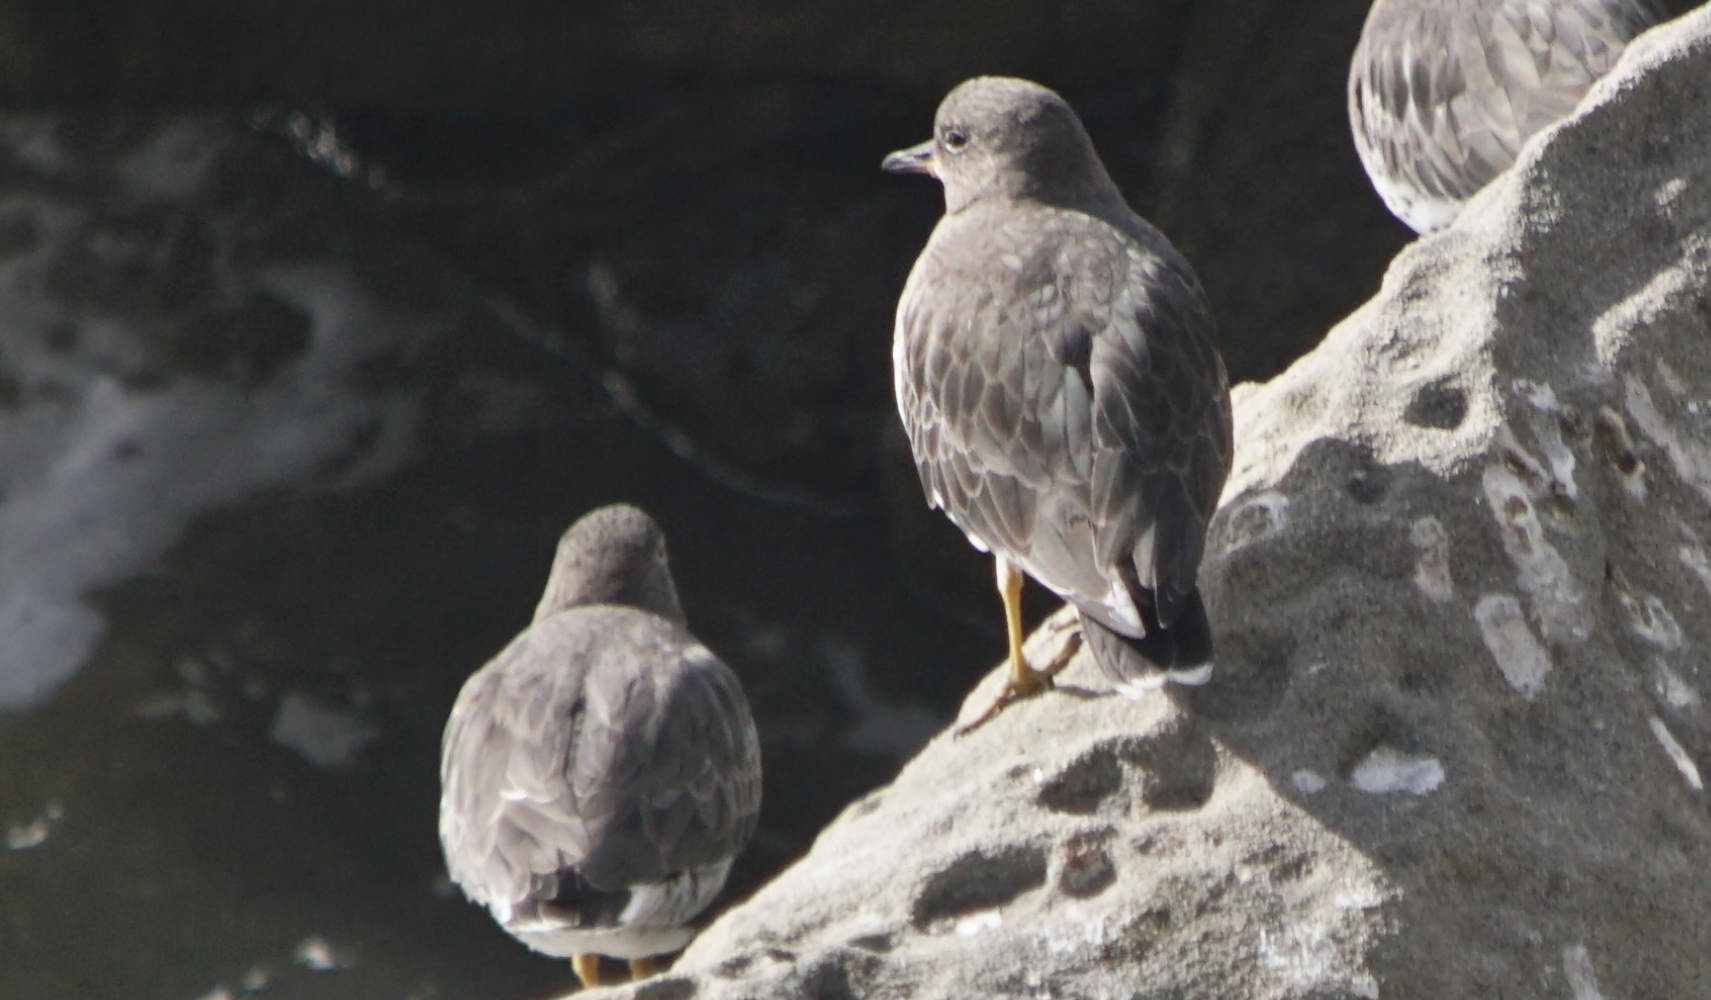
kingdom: Animalia
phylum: Chordata
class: Aves
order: Charadriiformes
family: Scolopacidae
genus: Calidris
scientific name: Calidris virgata
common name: Surfbird
